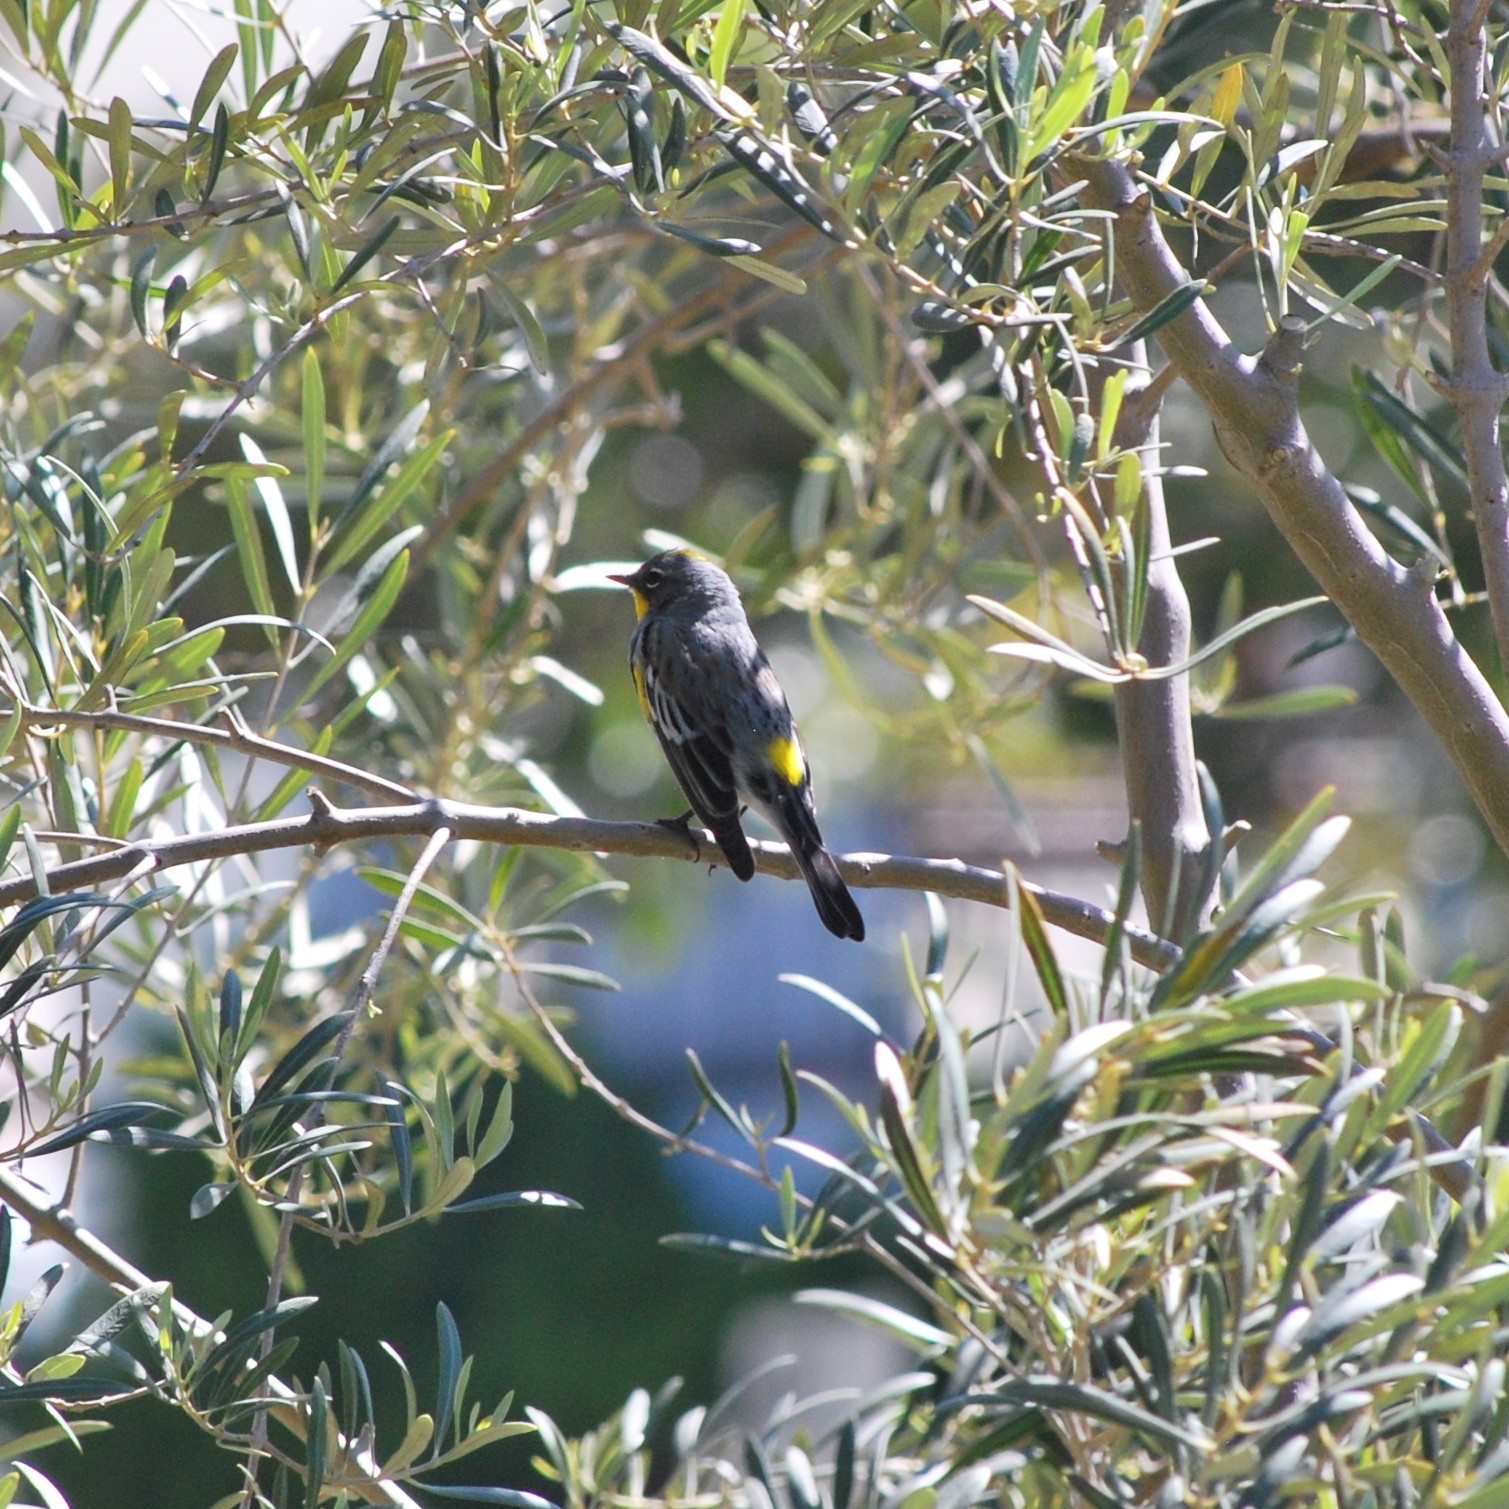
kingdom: Animalia
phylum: Chordata
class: Aves
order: Passeriformes
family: Parulidae
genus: Setophaga
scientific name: Setophaga auduboni
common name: Audubon's warbler
